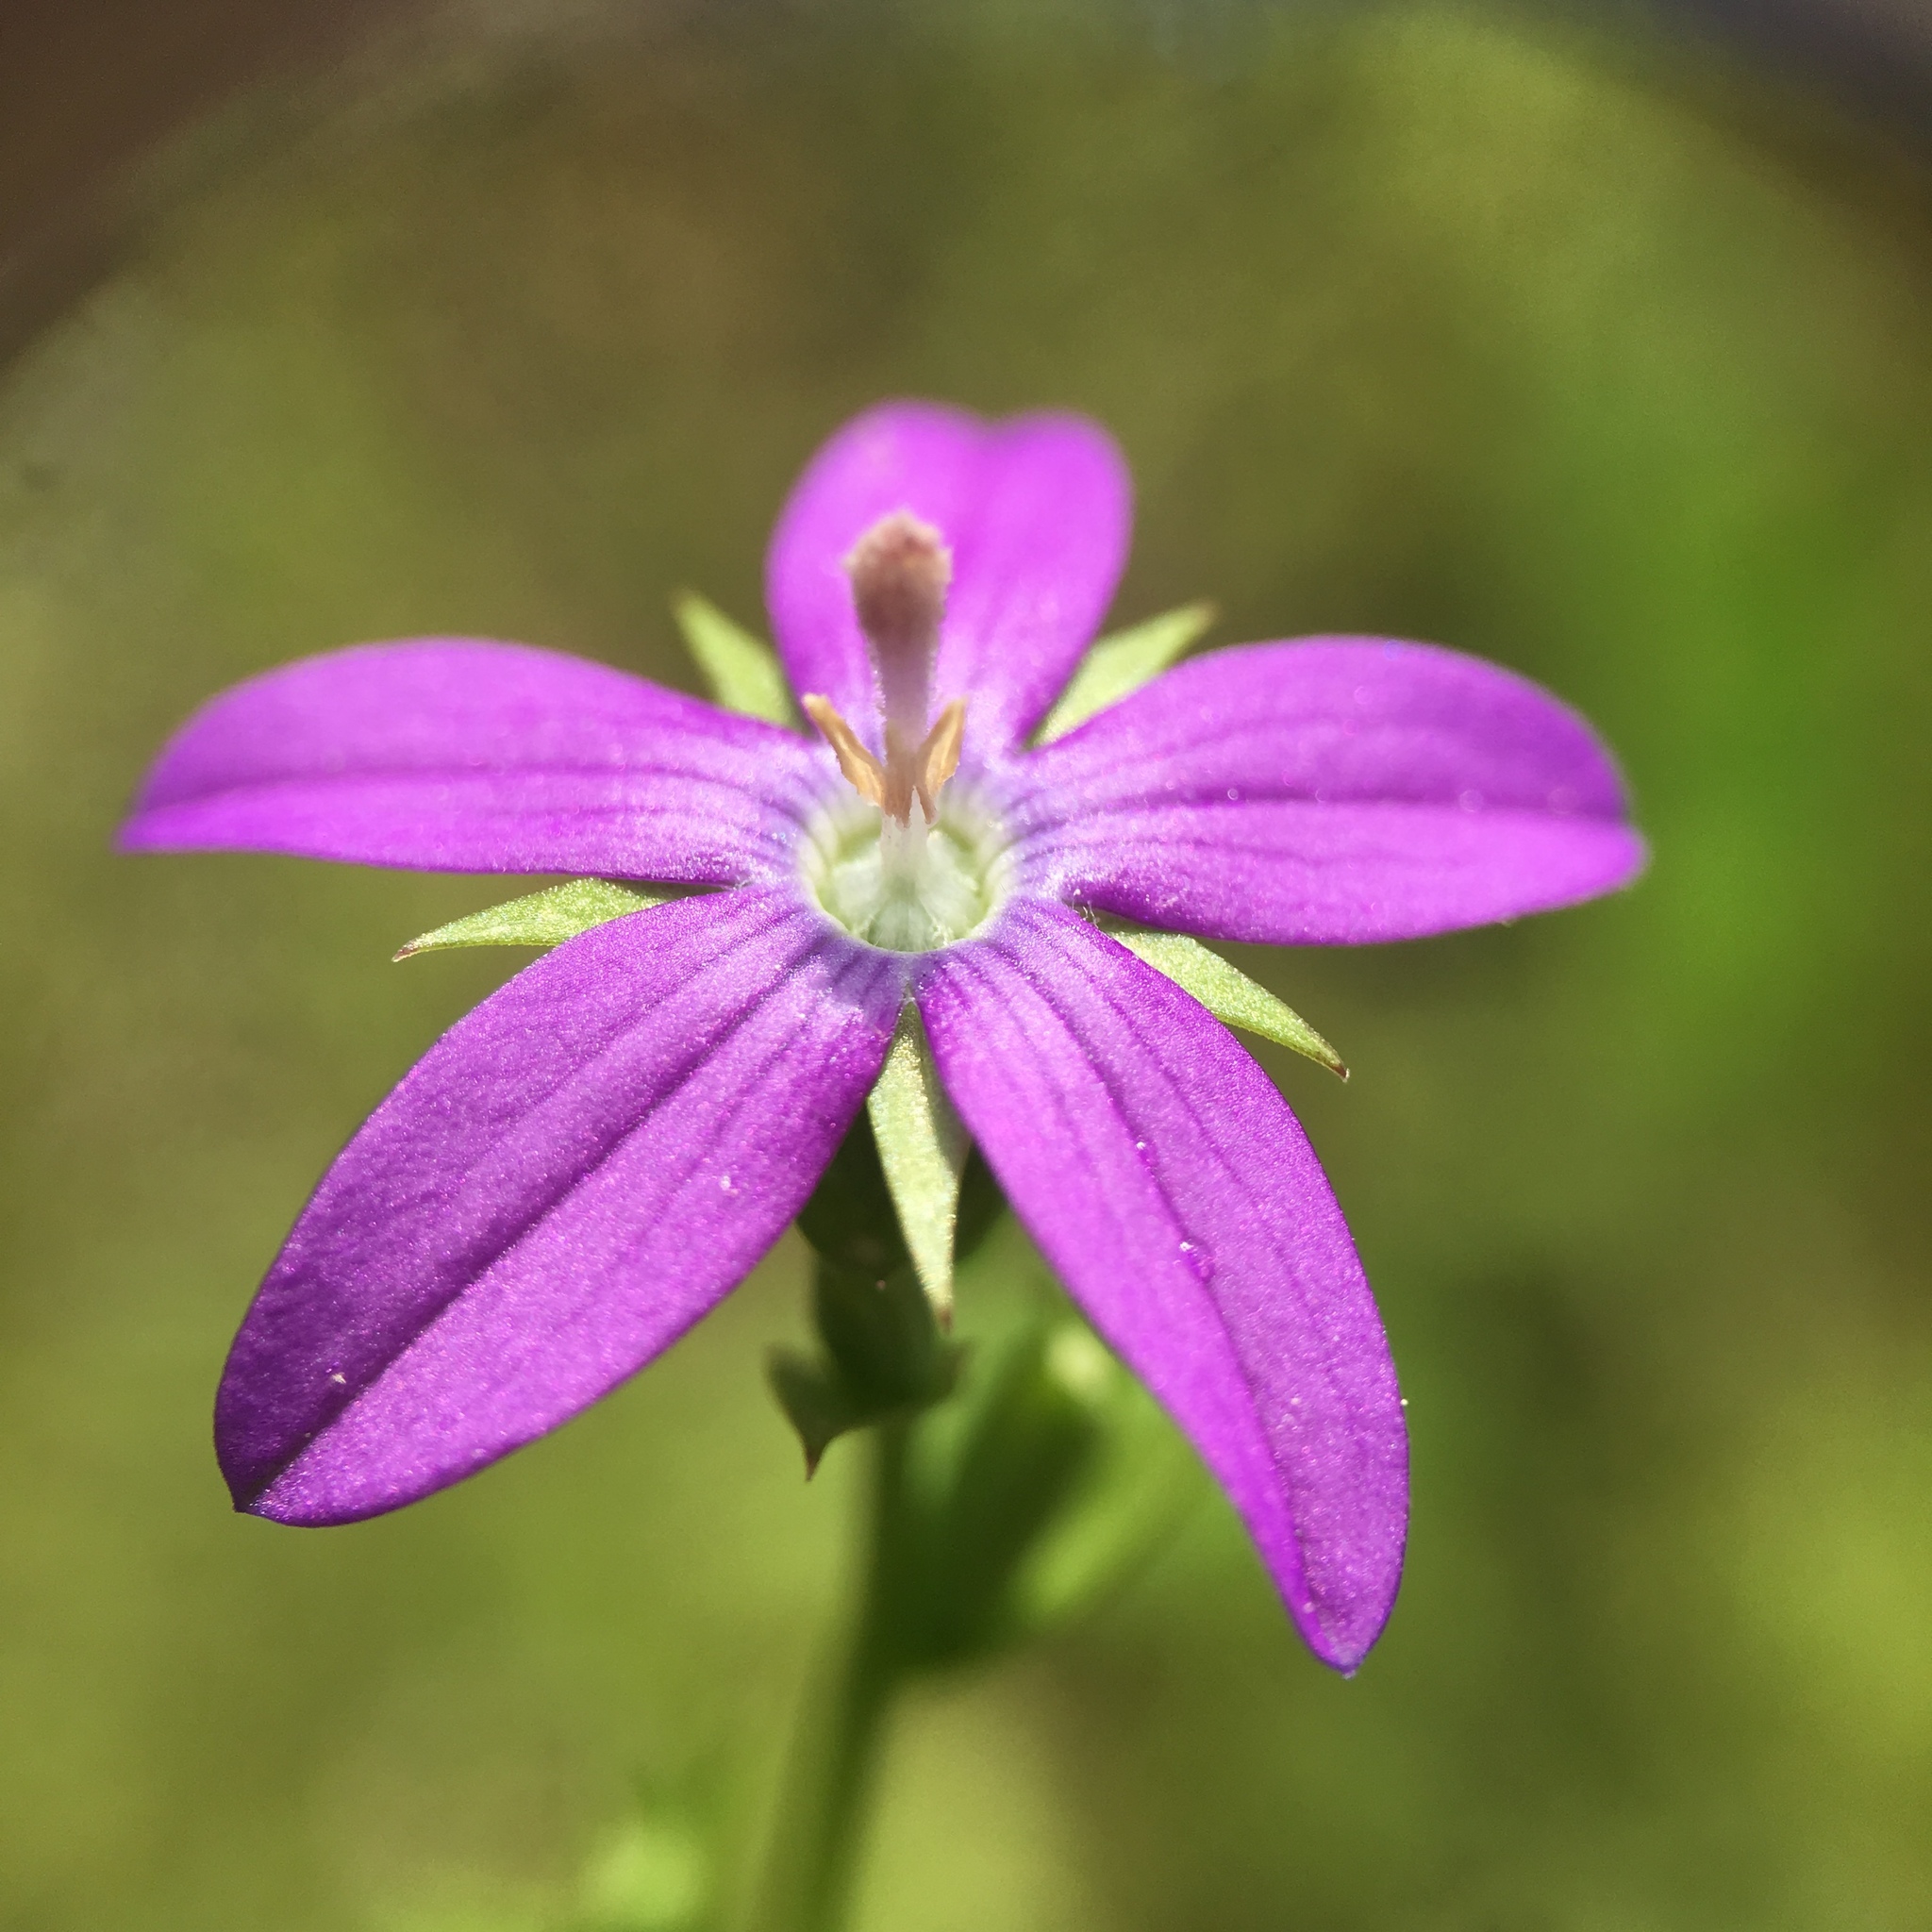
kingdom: Plantae
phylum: Tracheophyta
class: Magnoliopsida
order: Asterales
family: Campanulaceae
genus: Triodanis
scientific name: Triodanis perfoliata
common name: Clasping venus' looking-glass
